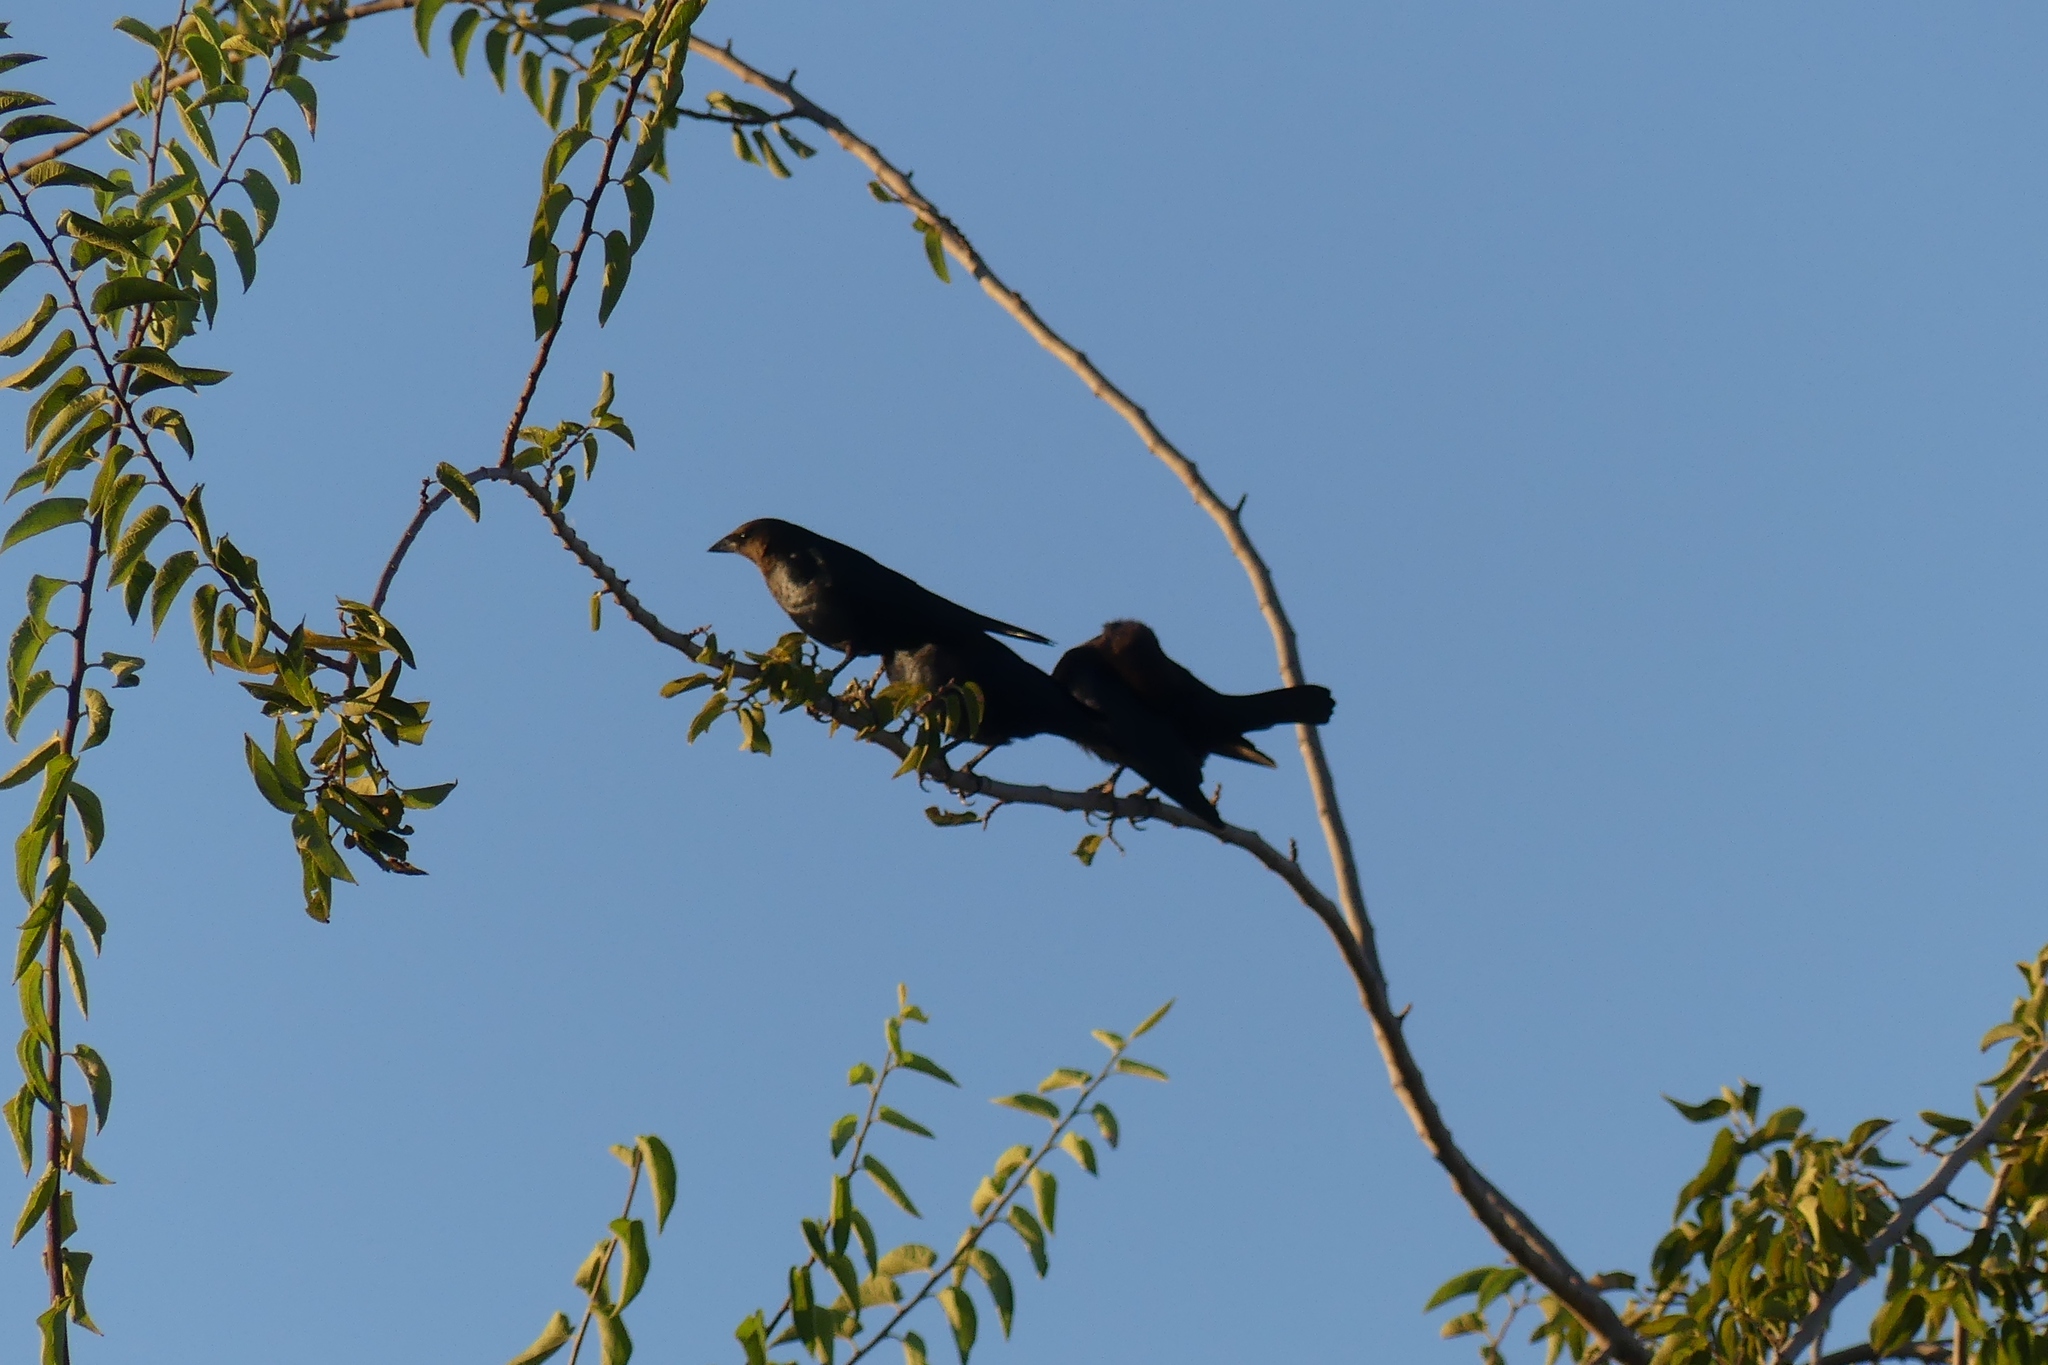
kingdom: Animalia
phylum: Chordata
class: Aves
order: Passeriformes
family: Icteridae
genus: Molothrus
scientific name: Molothrus ater
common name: Brown-headed cowbird
